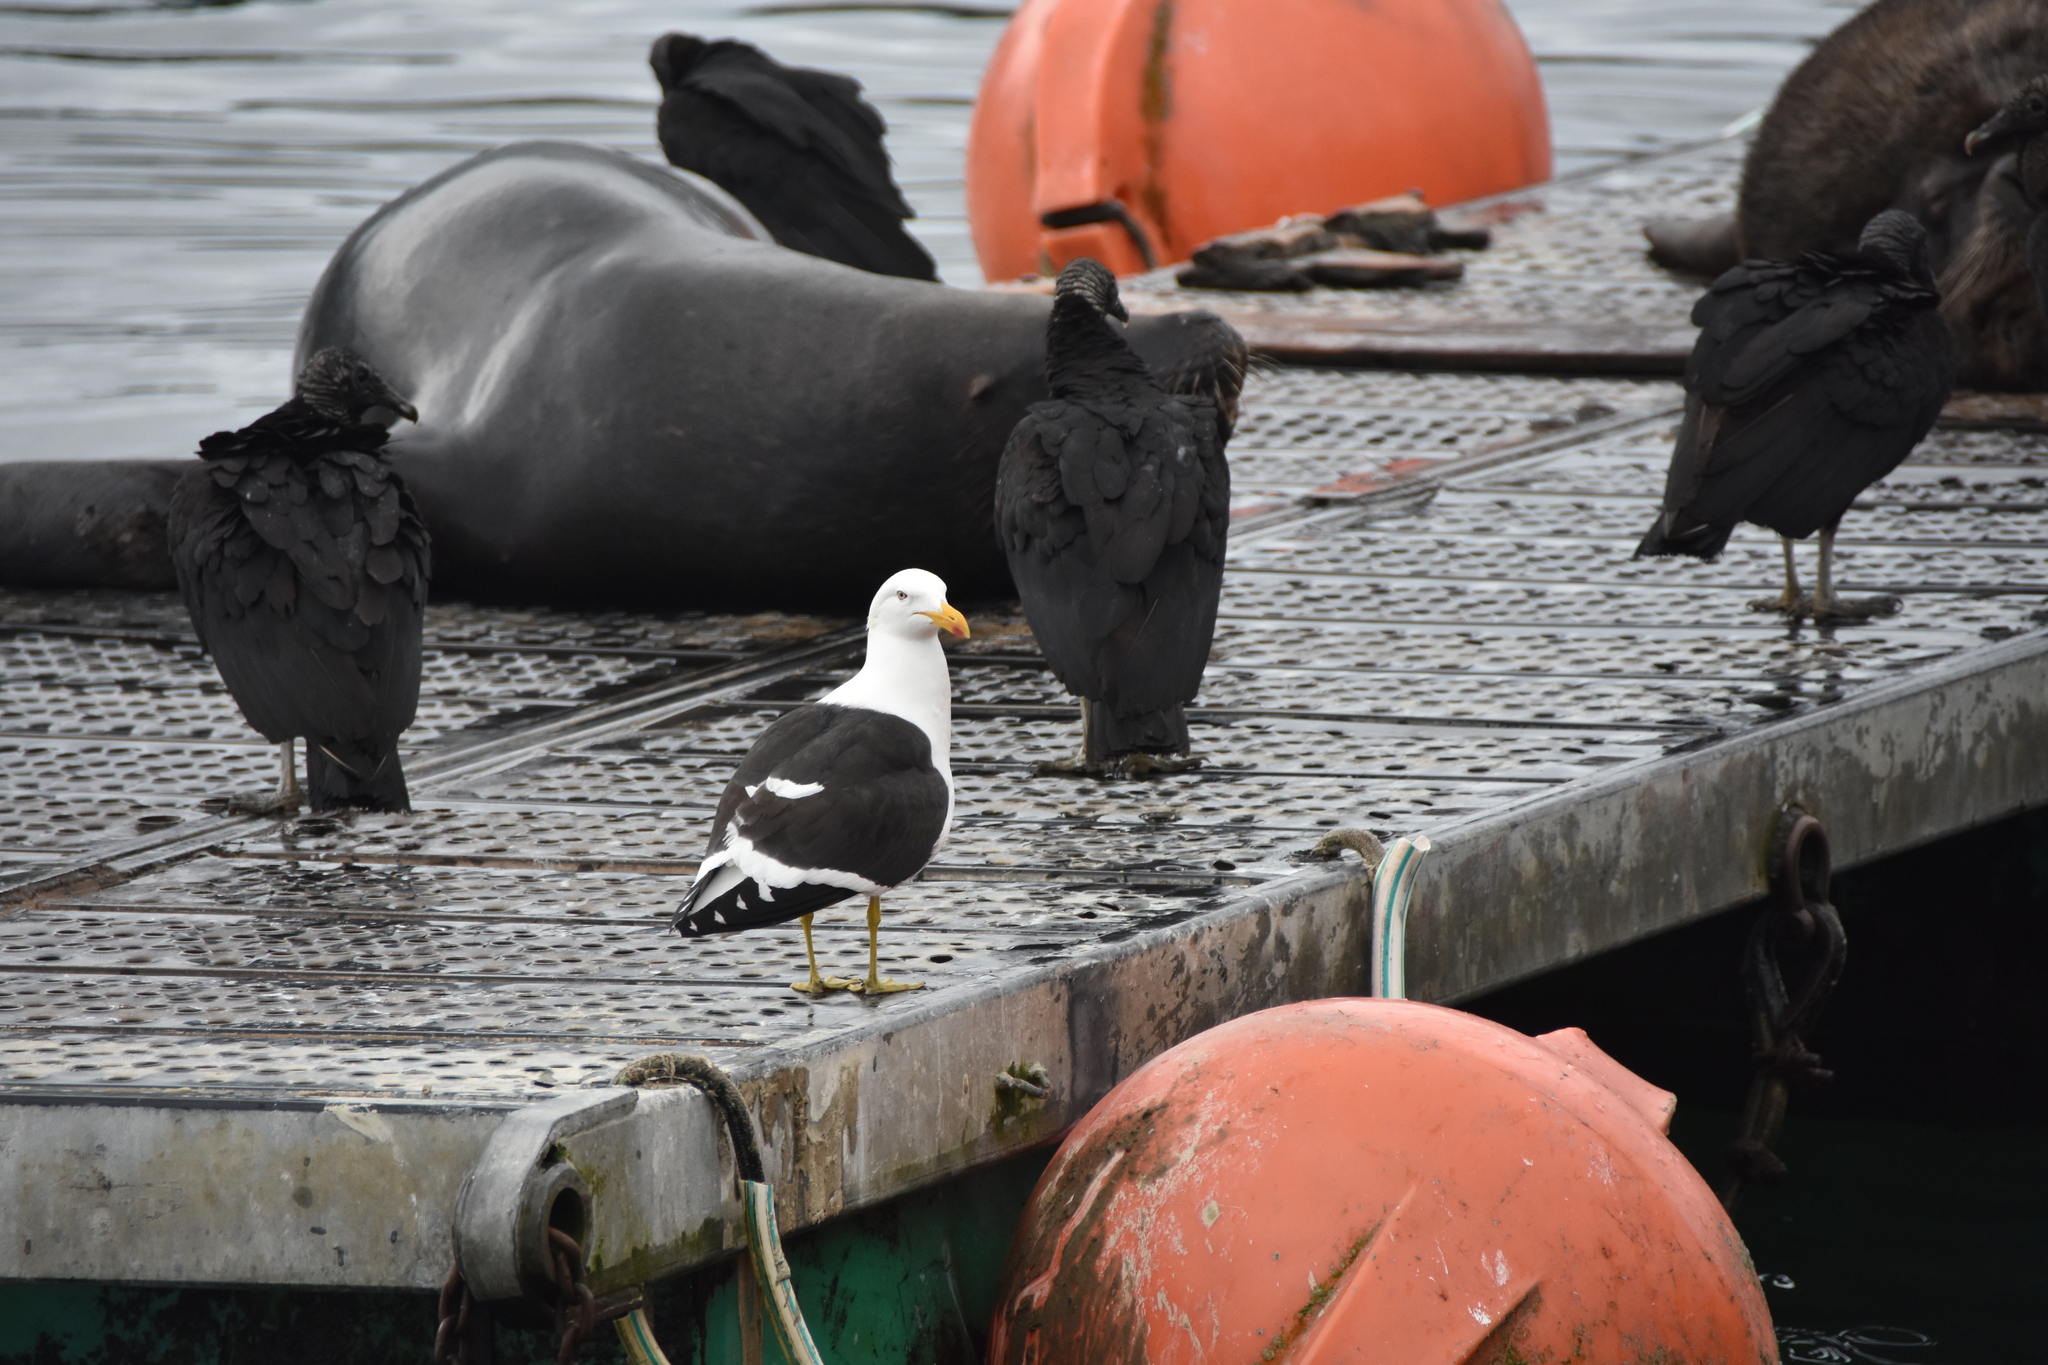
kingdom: Animalia
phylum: Chordata
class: Aves
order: Charadriiformes
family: Laridae
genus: Larus
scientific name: Larus dominicanus
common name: Kelp gull
